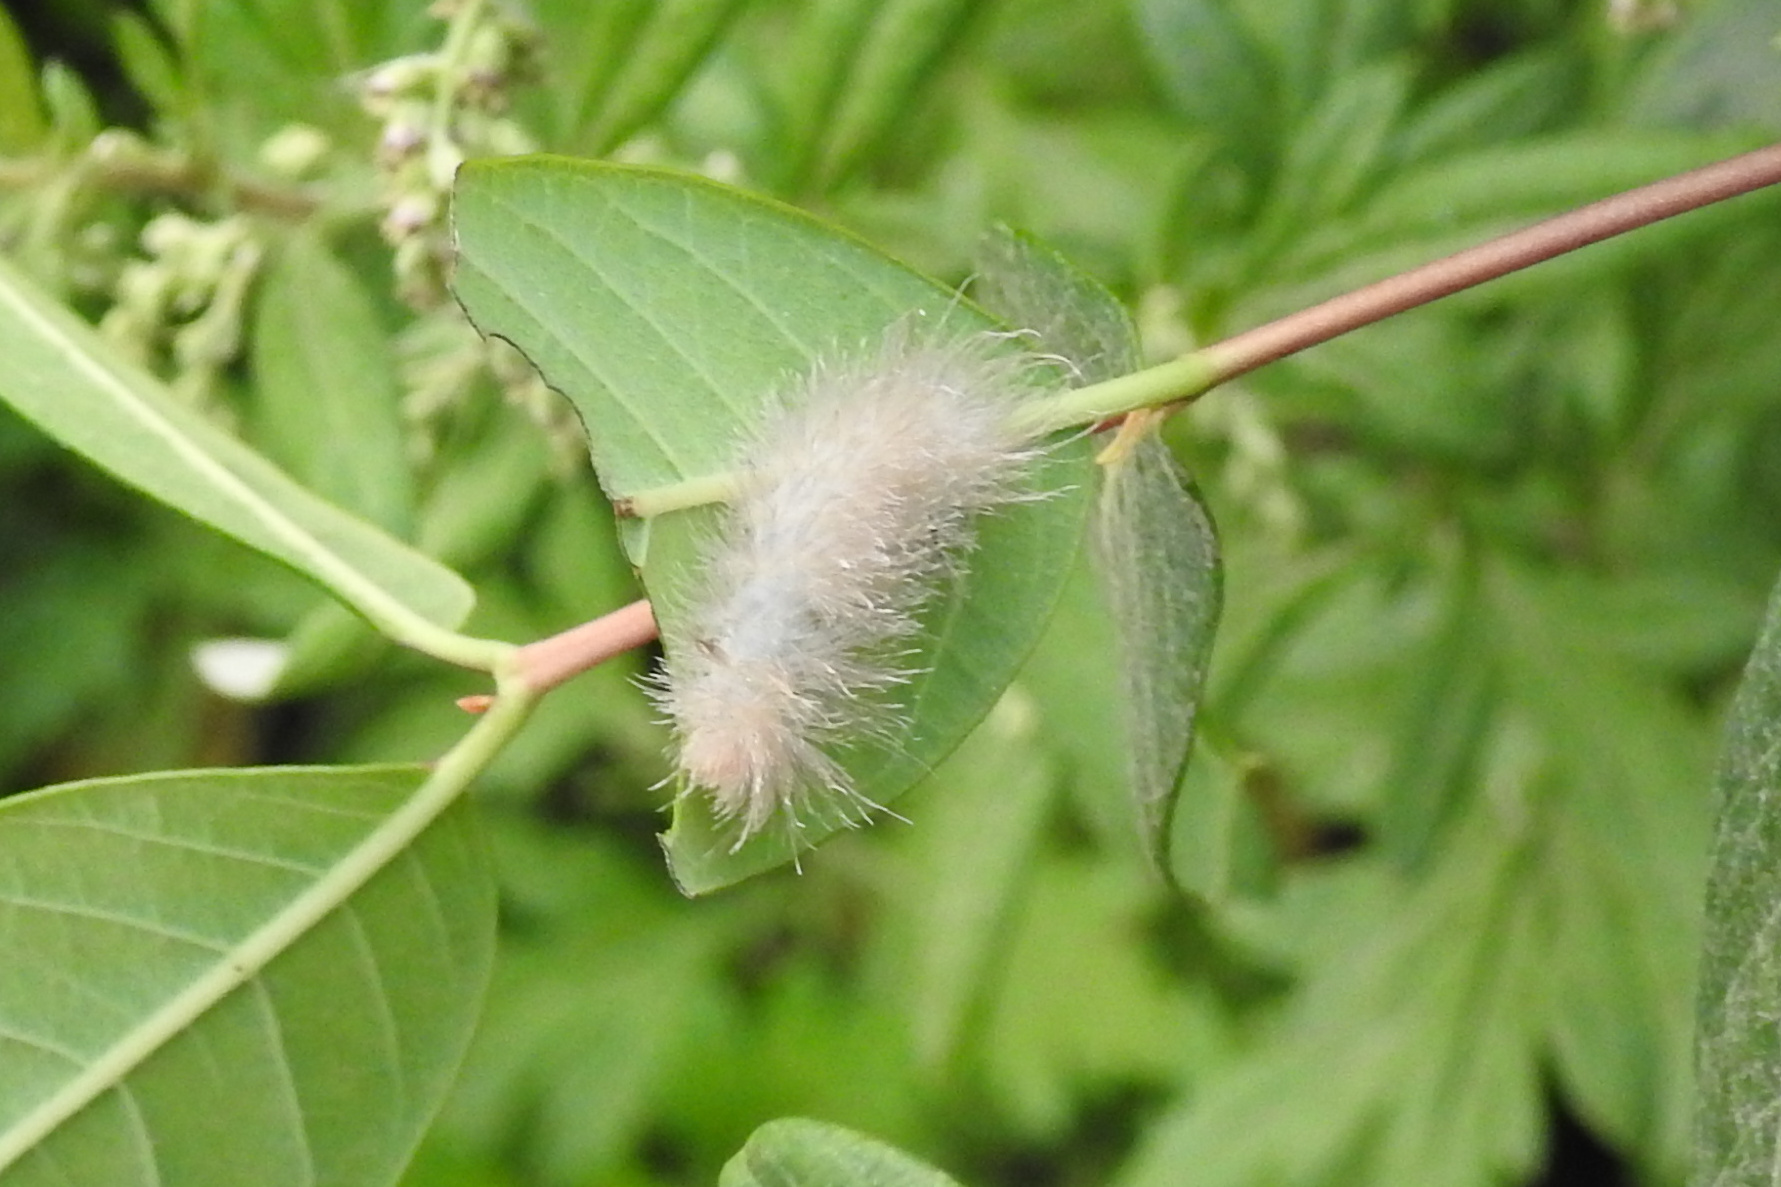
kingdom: Animalia
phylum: Arthropoda
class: Insecta
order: Lepidoptera
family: Erebidae
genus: Cycnia
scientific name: Cycnia tenera
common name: Delicate cycnia moth
